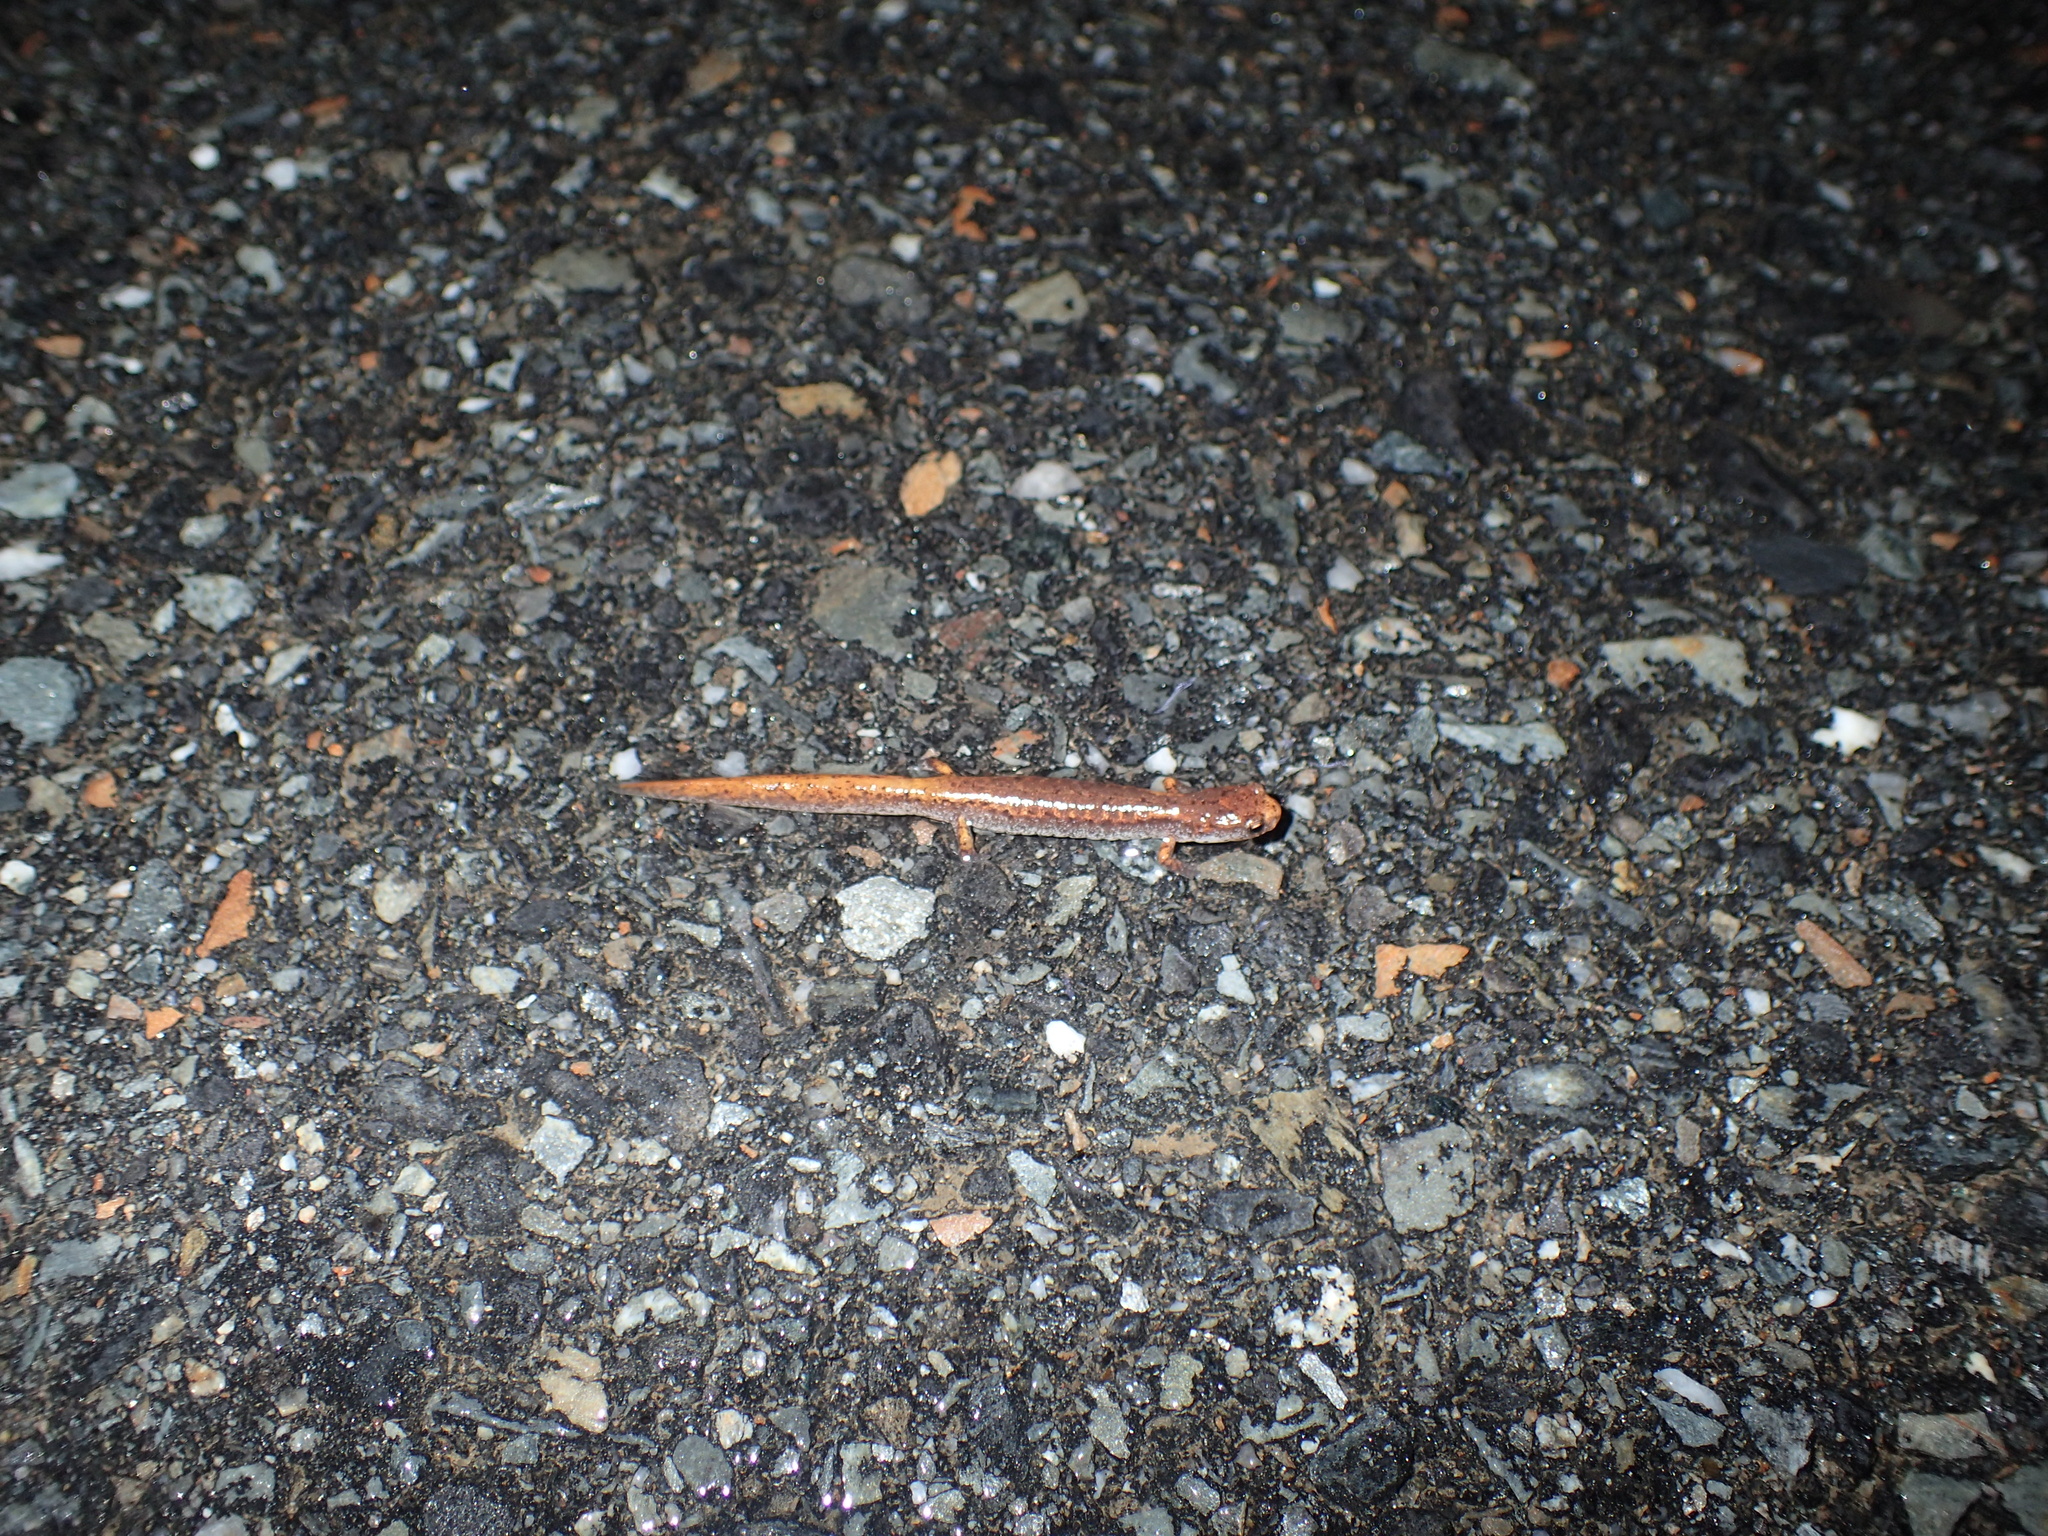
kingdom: Animalia
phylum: Chordata
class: Amphibia
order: Caudata
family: Plethodontidae
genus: Hemidactylium
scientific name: Hemidactylium scutatum
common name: Four-toed salamander
